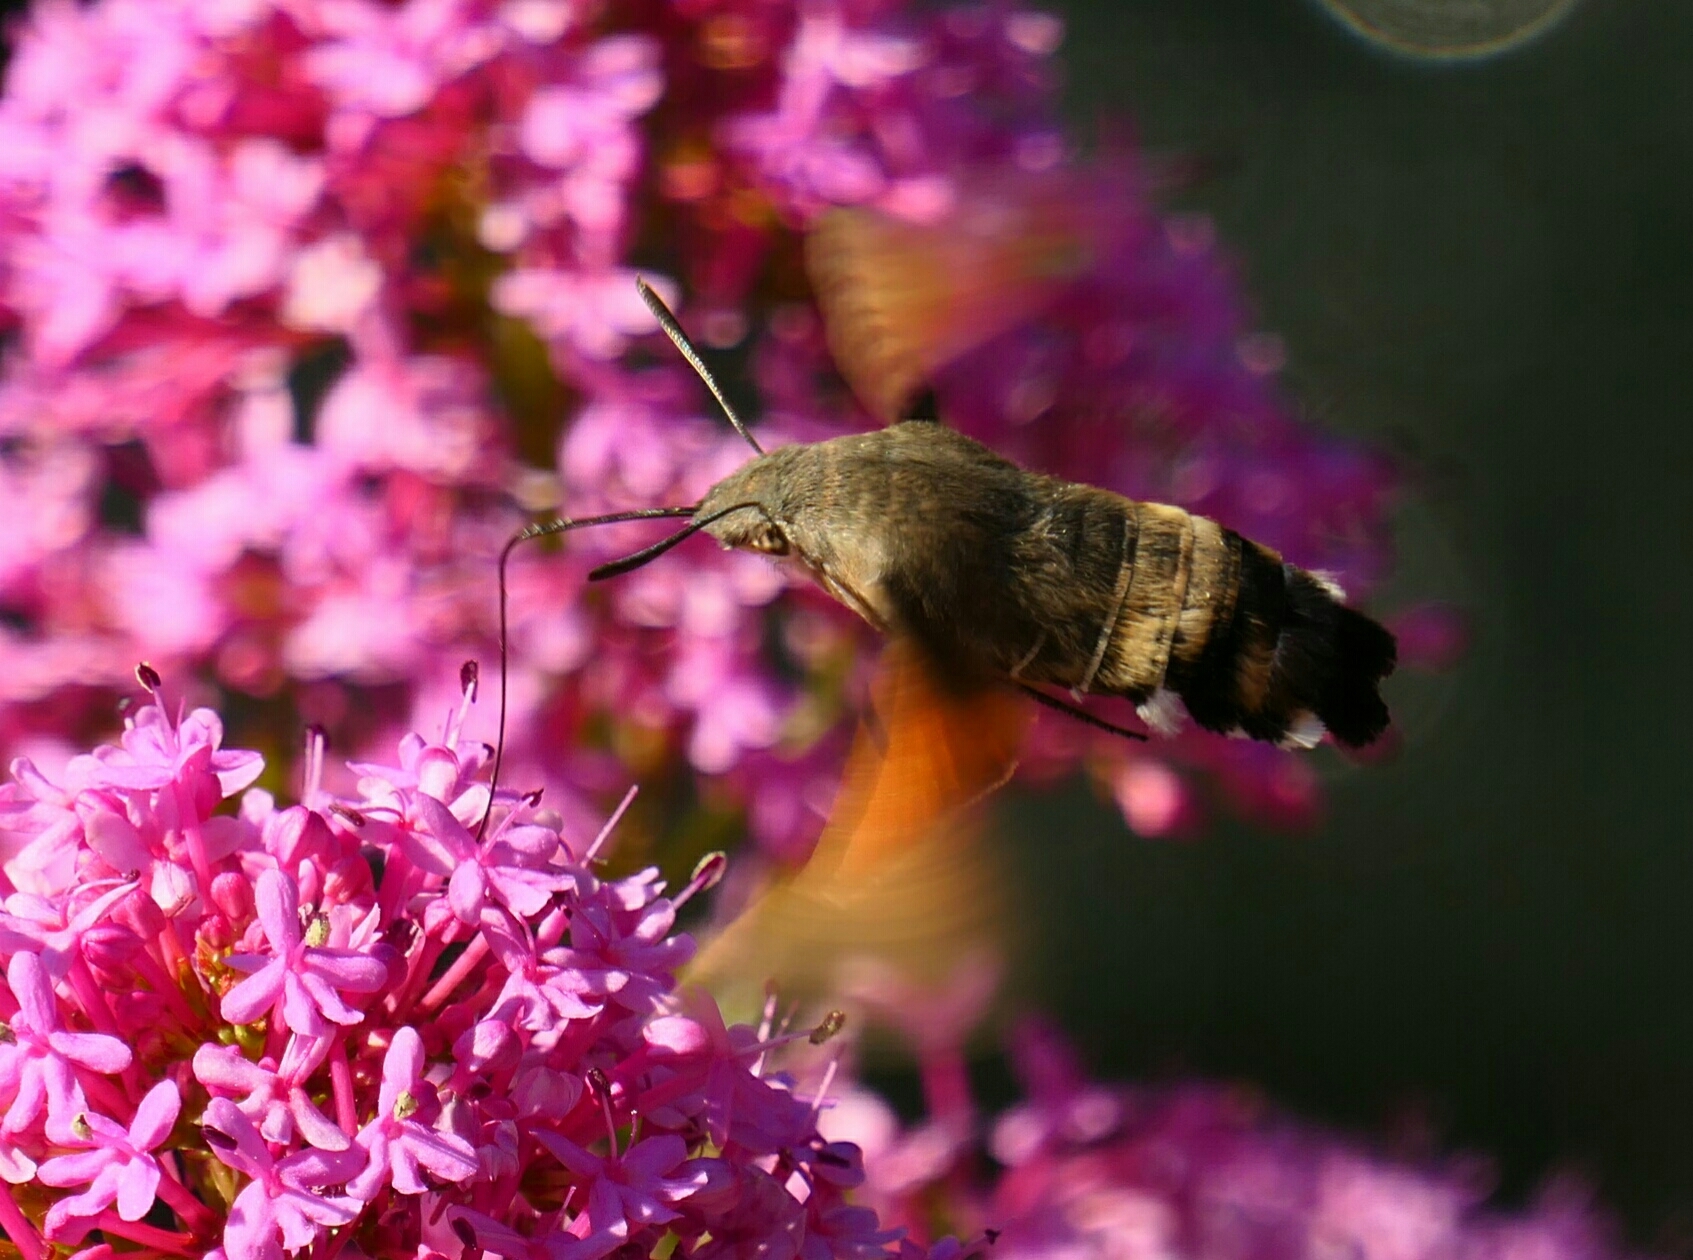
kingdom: Animalia
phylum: Arthropoda
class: Insecta
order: Lepidoptera
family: Sphingidae
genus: Macroglossum
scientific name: Macroglossum stellatarum
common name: Humming-bird hawk-moth
